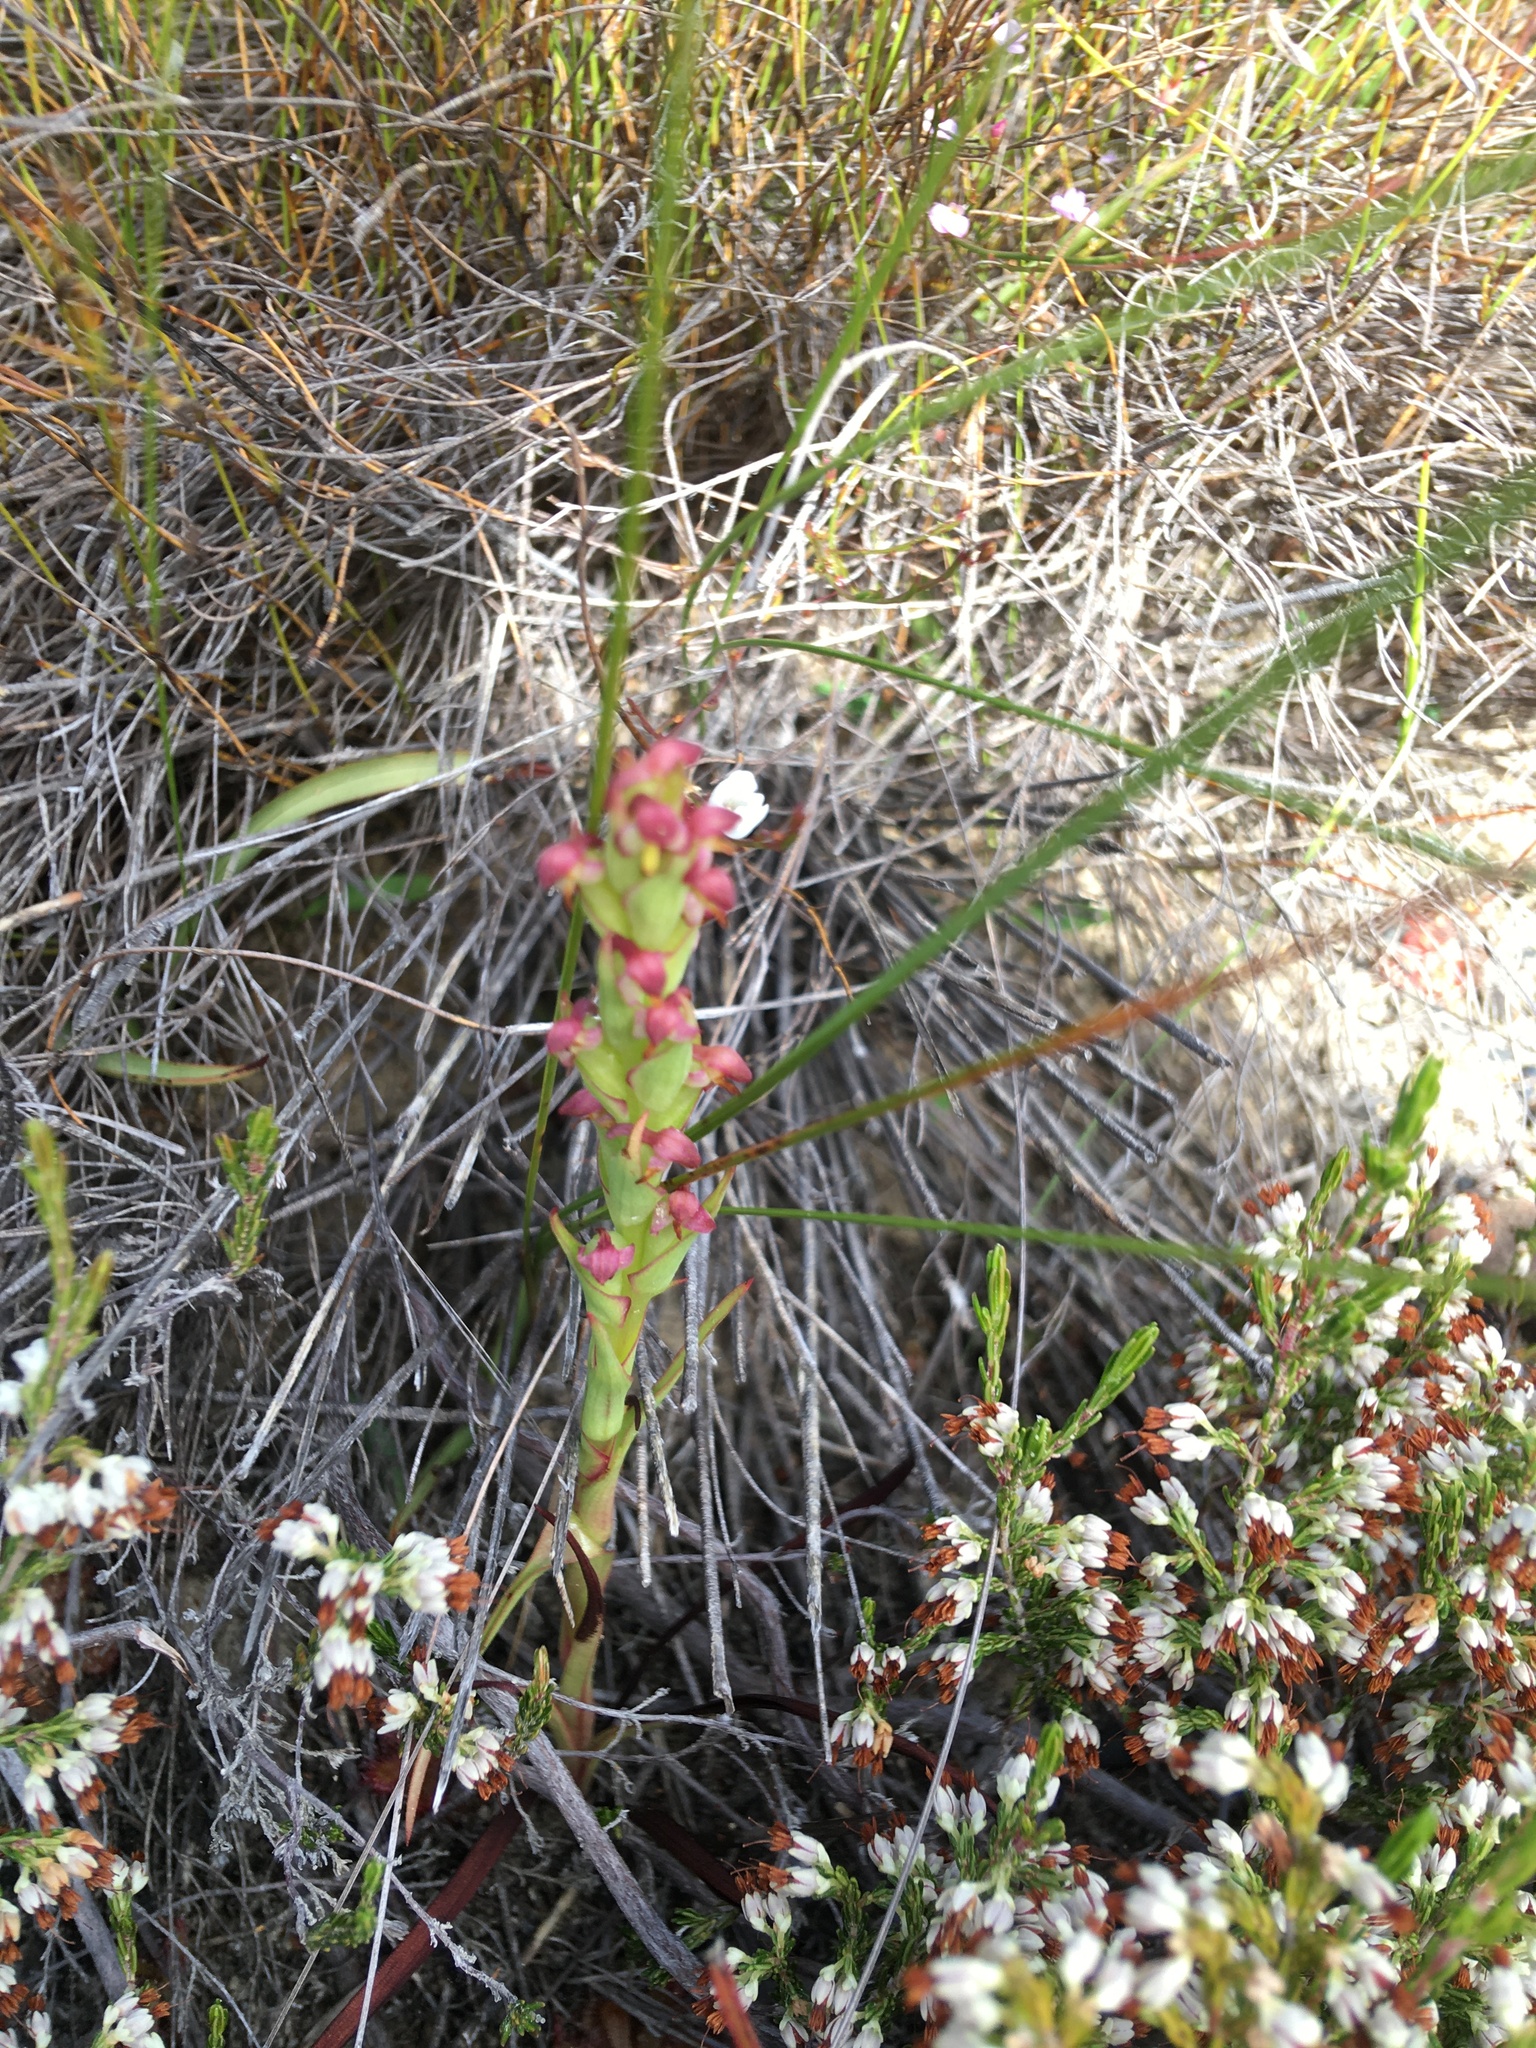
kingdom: Plantae
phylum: Tracheophyta
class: Liliopsida
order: Asparagales
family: Orchidaceae
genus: Disa
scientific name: Disa bracteata
